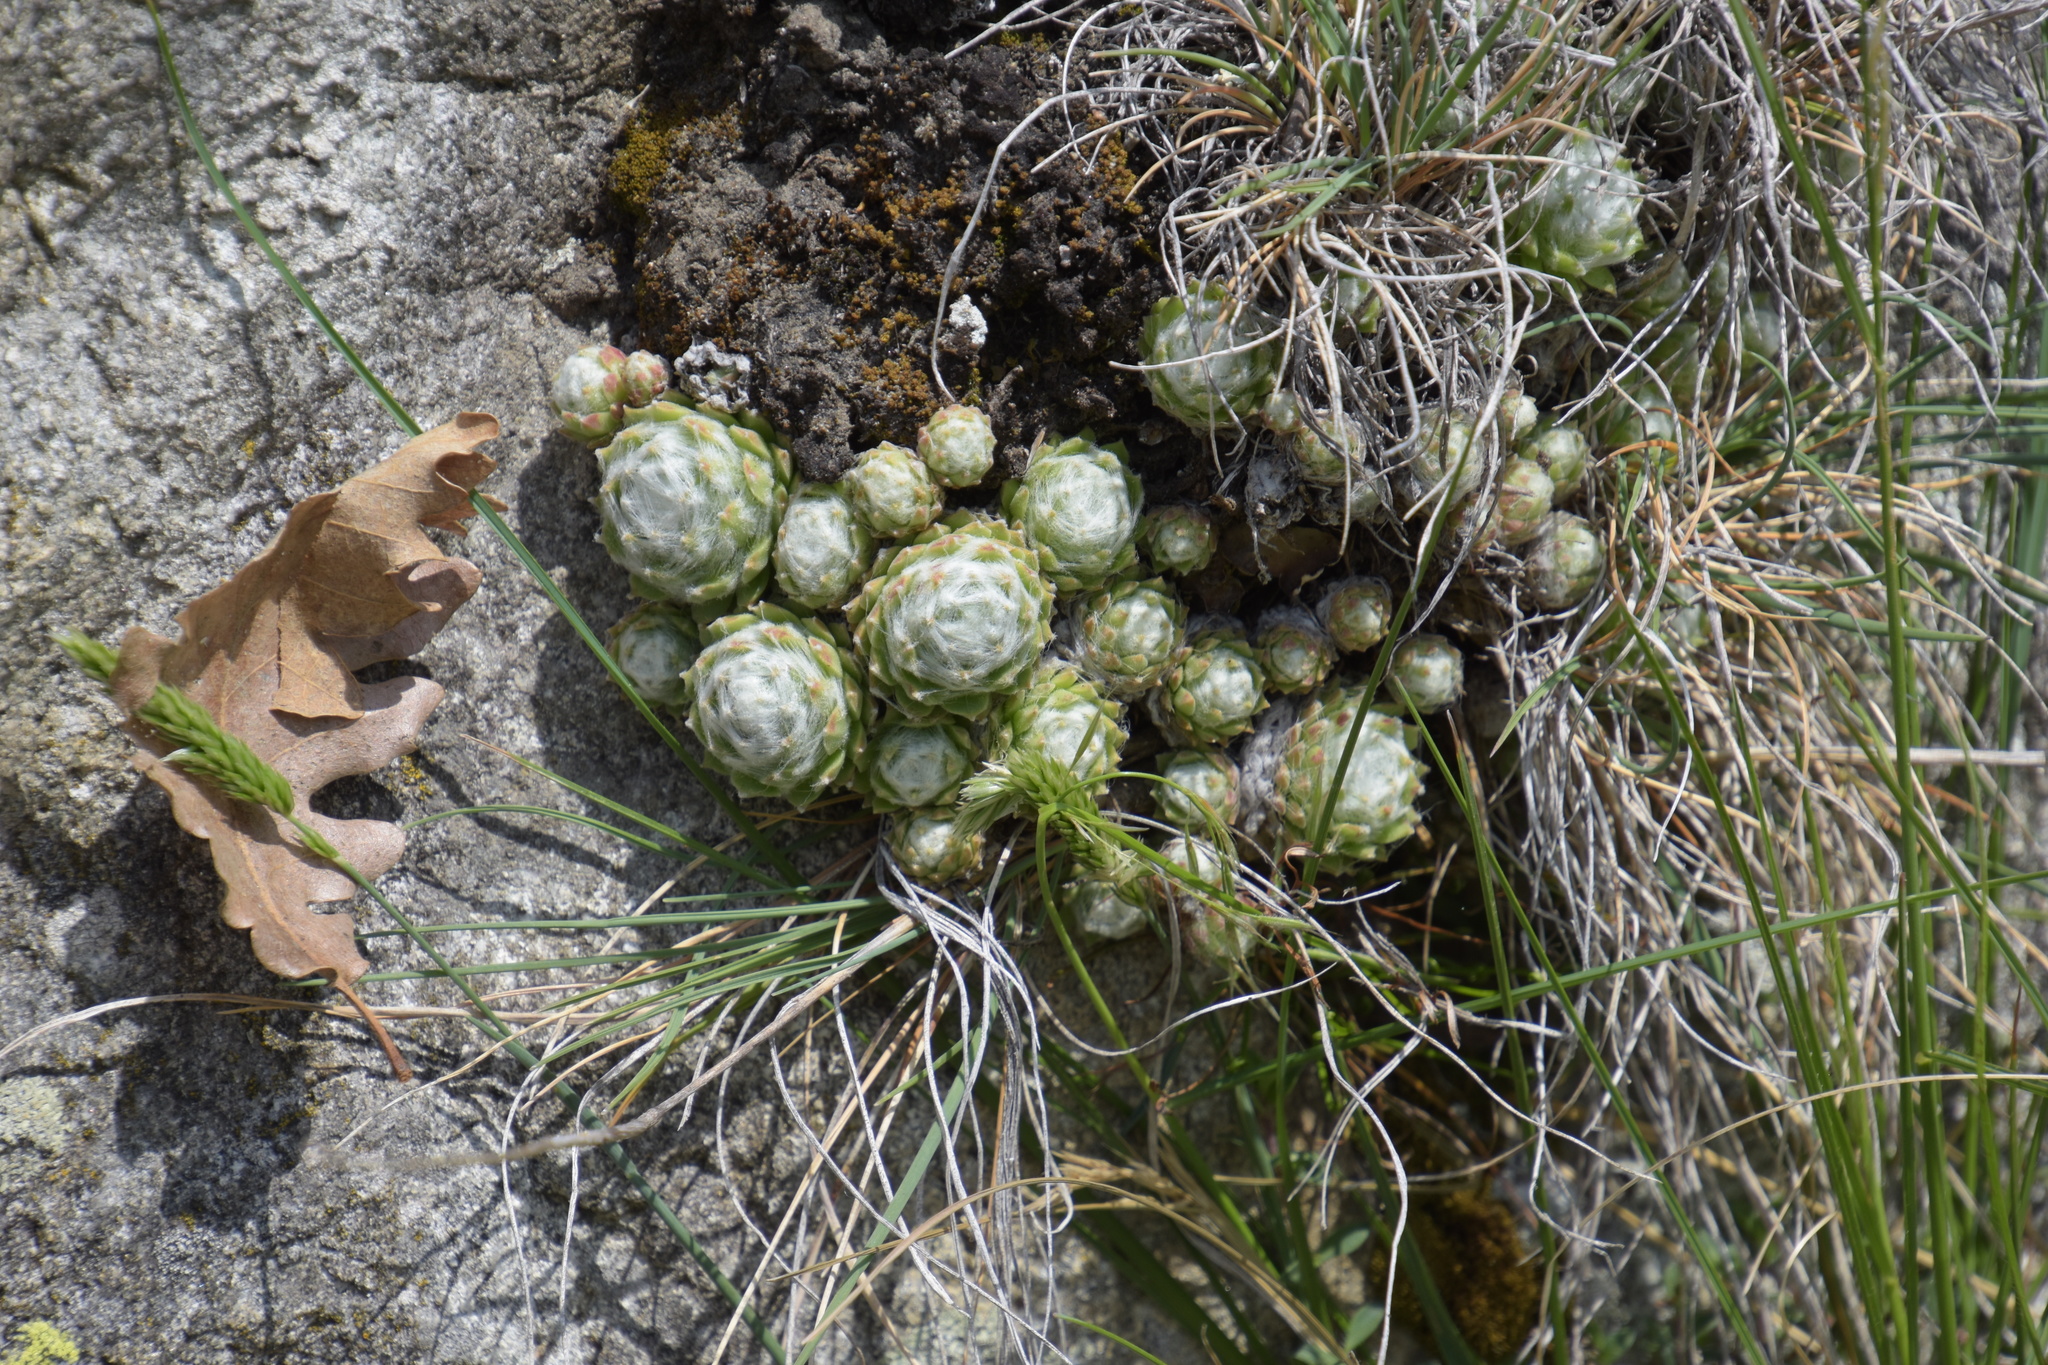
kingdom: Plantae
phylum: Tracheophyta
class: Magnoliopsida
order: Saxifragales
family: Crassulaceae
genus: Sempervivum
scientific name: Sempervivum arachnoideum
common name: Cobweb house-leek
